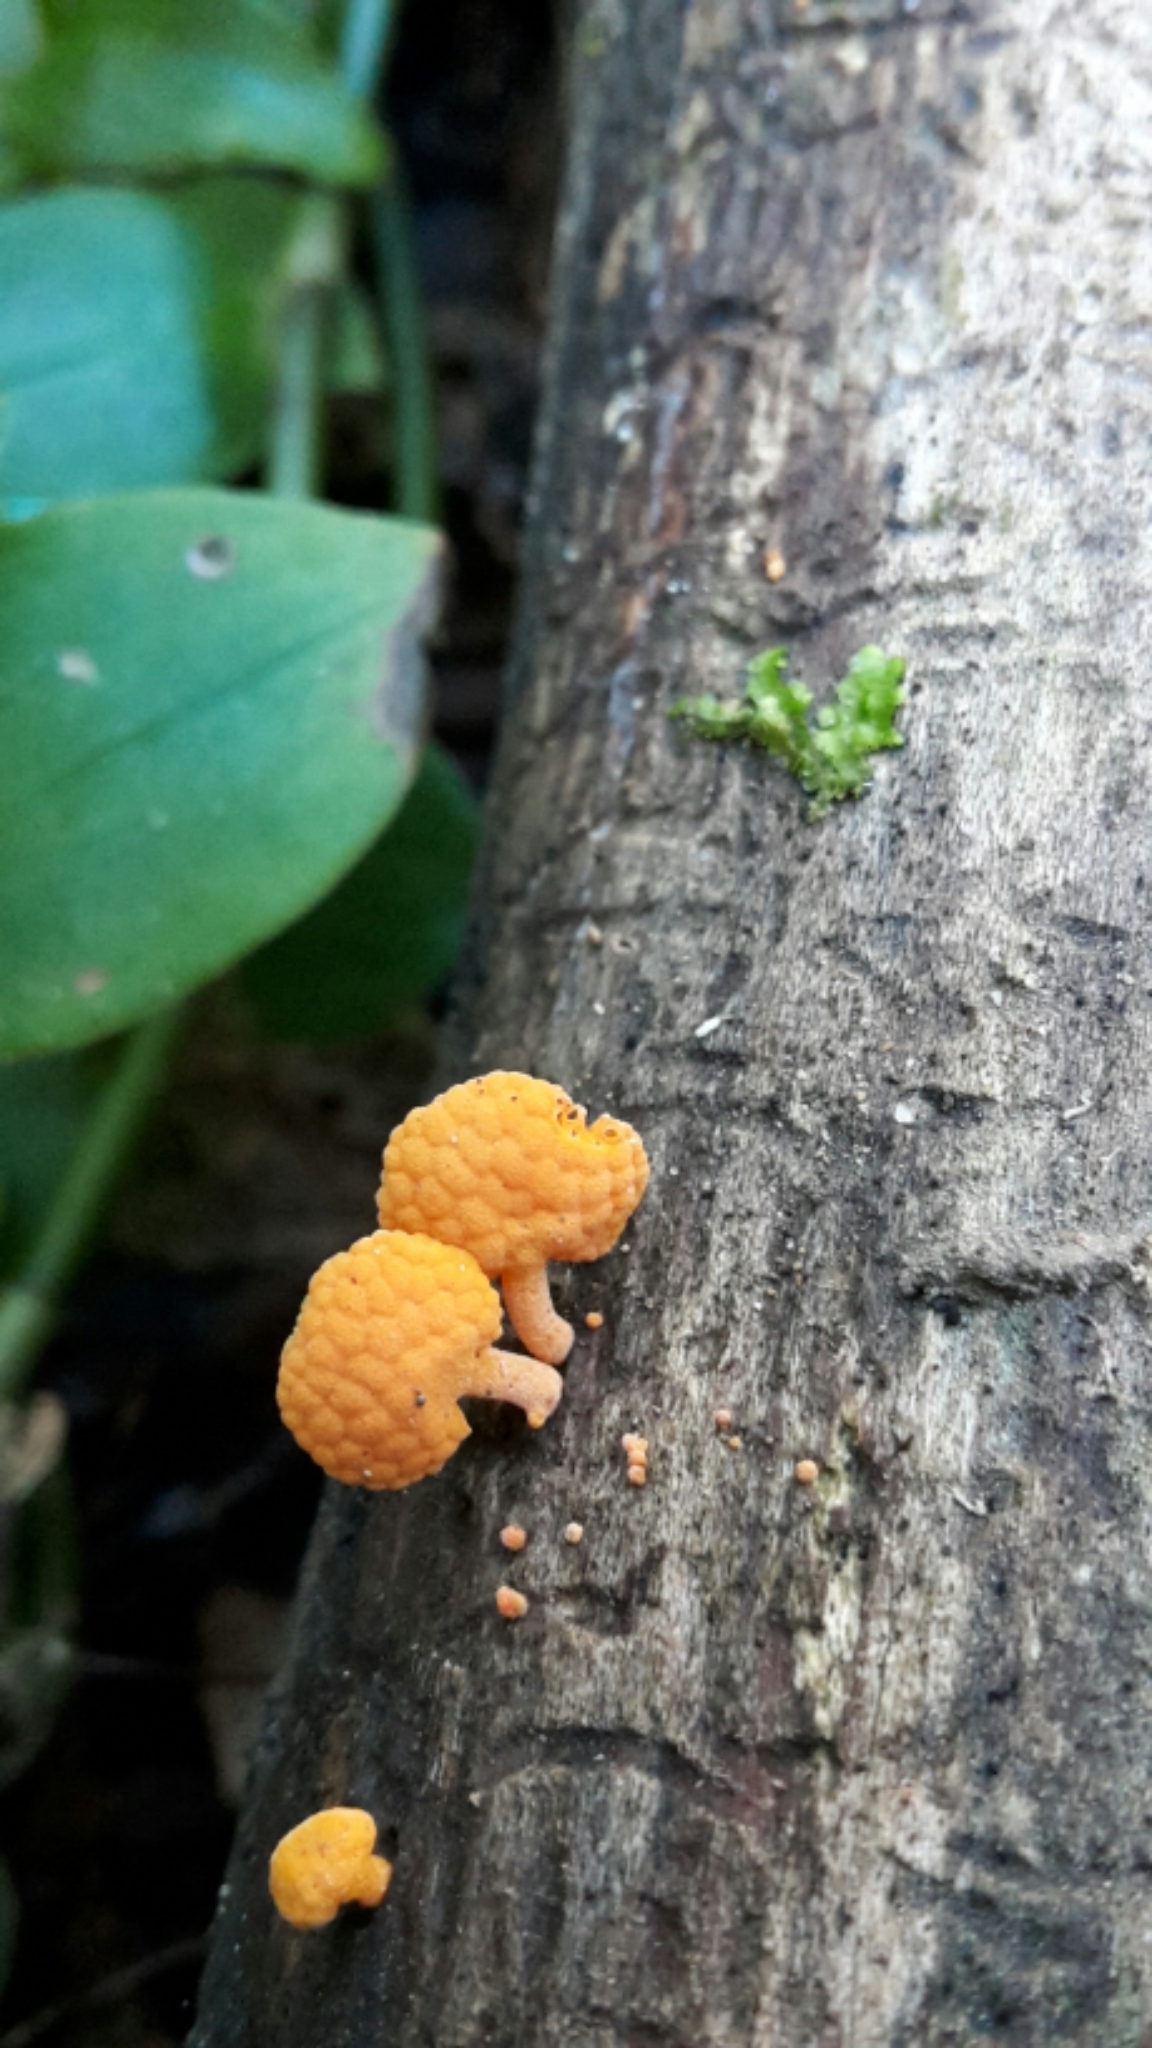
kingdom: Fungi
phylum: Basidiomycota
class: Agaricomycetes
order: Agaricales
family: Mycenaceae
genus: Favolaschia
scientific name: Favolaschia claudopus
